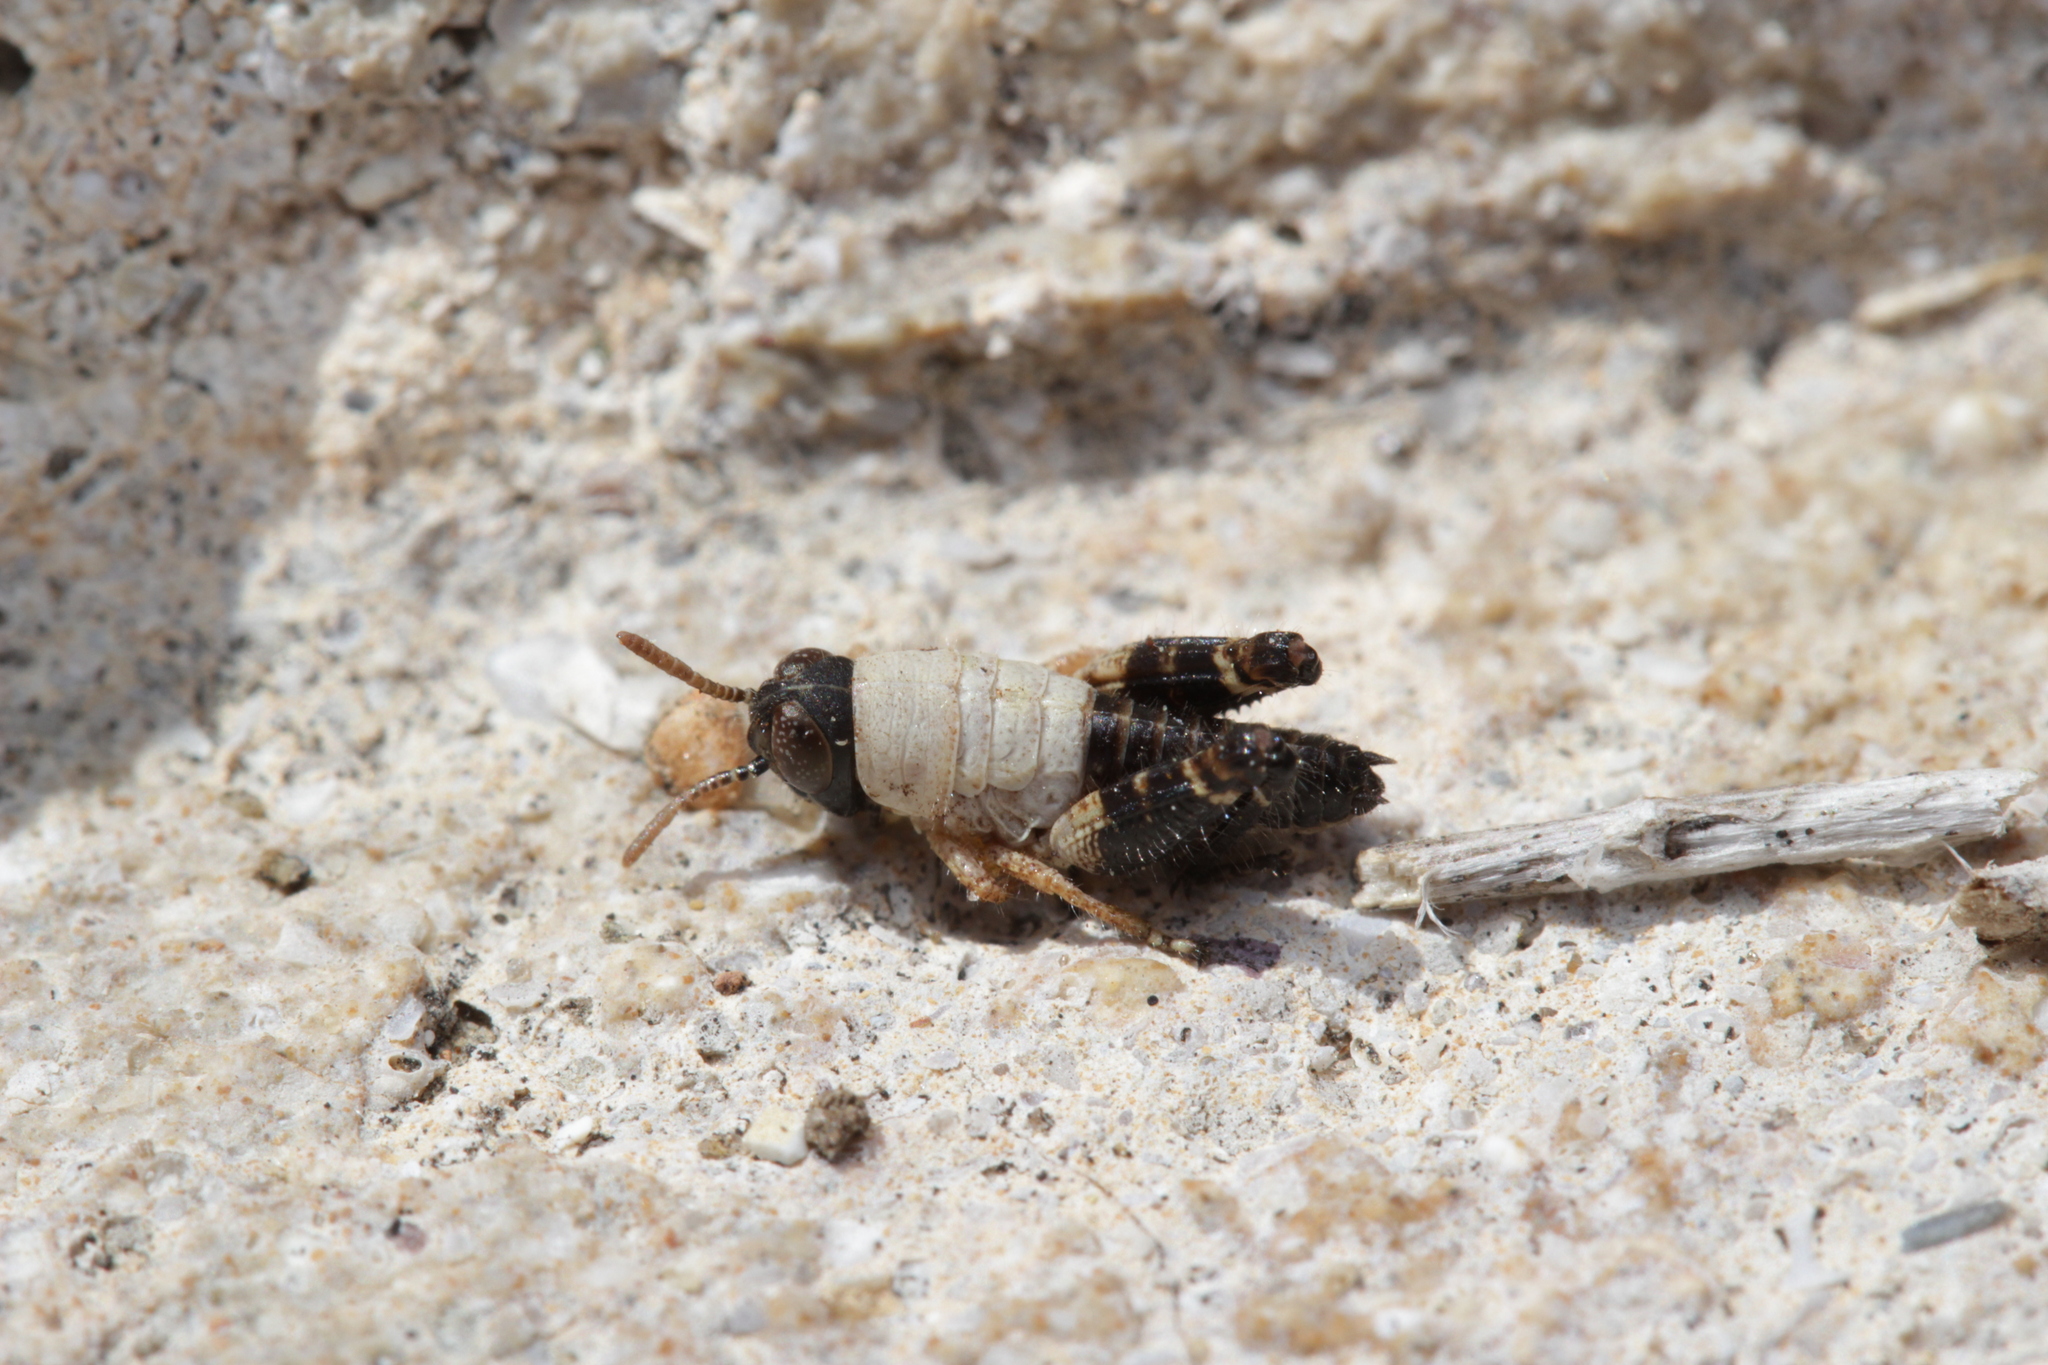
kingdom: Animalia
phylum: Arthropoda
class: Insecta
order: Orthoptera
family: Acrididae
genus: Calliptamus
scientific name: Calliptamus italicus
